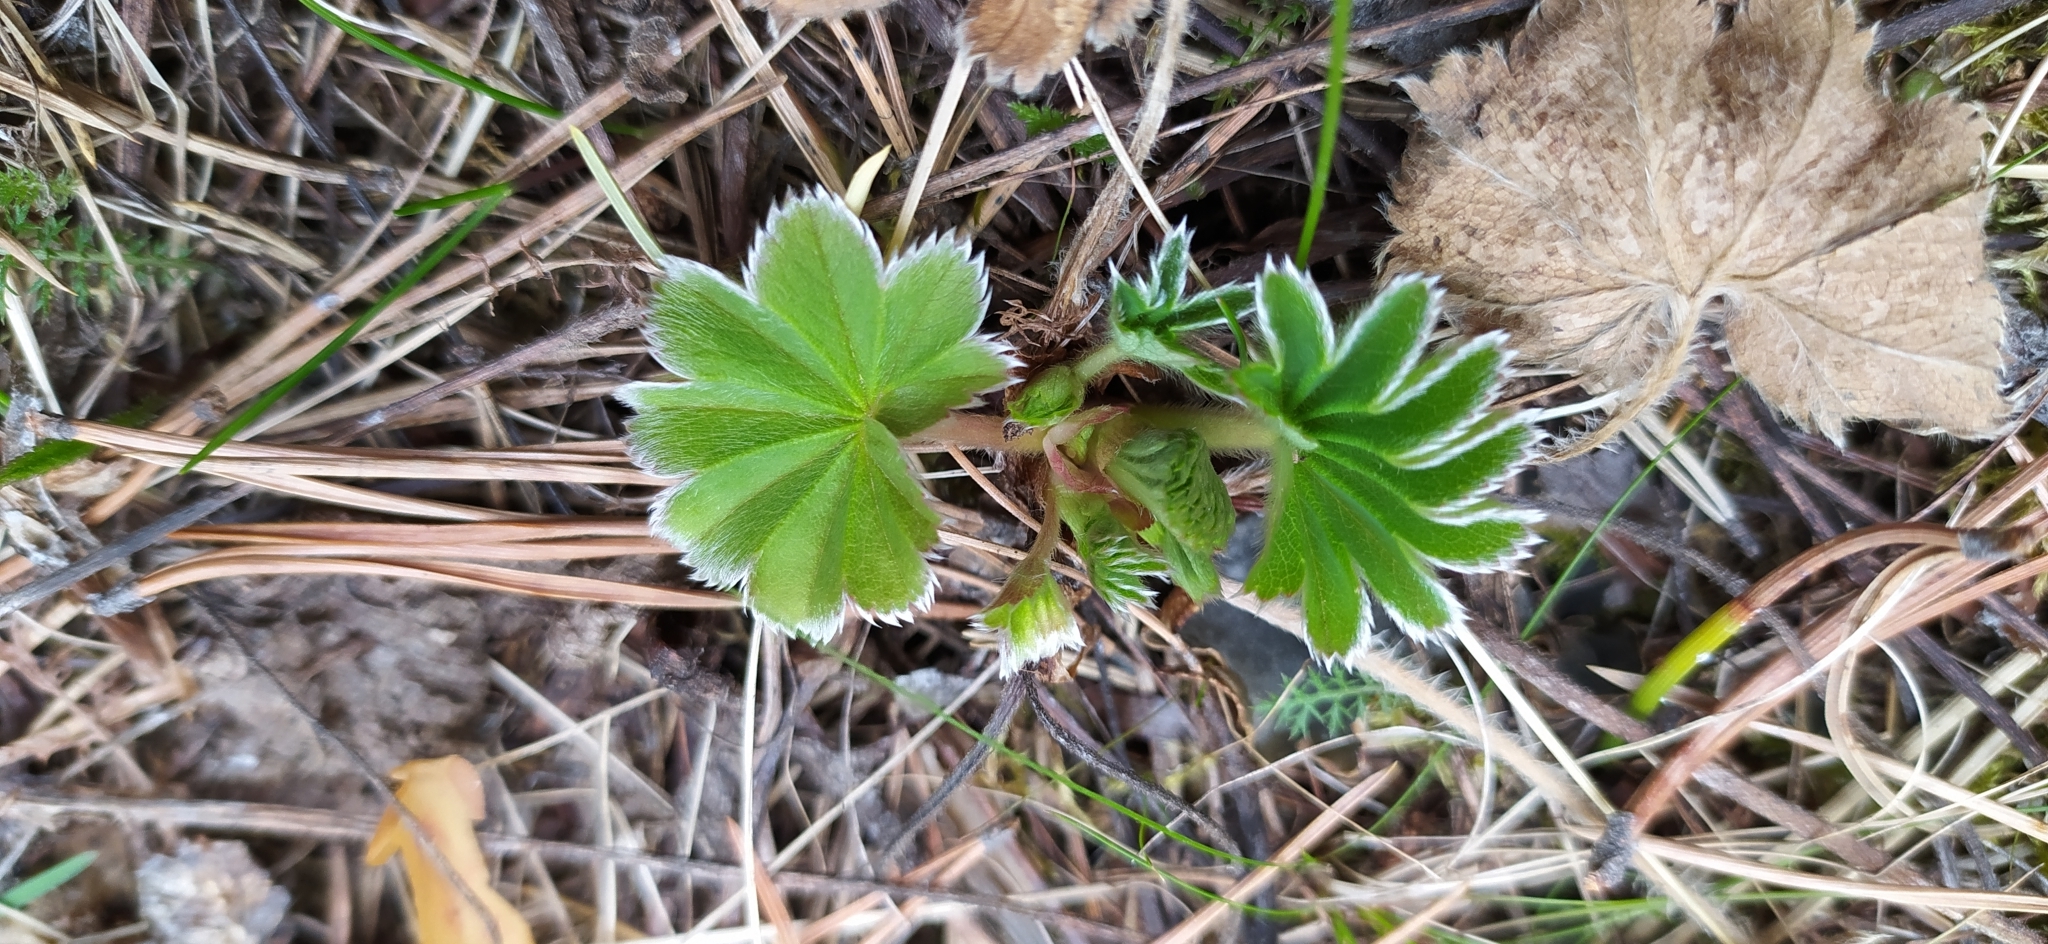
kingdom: Plantae
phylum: Tracheophyta
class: Magnoliopsida
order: Rosales
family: Rosaceae
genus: Alchemilla
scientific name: Alchemilla
